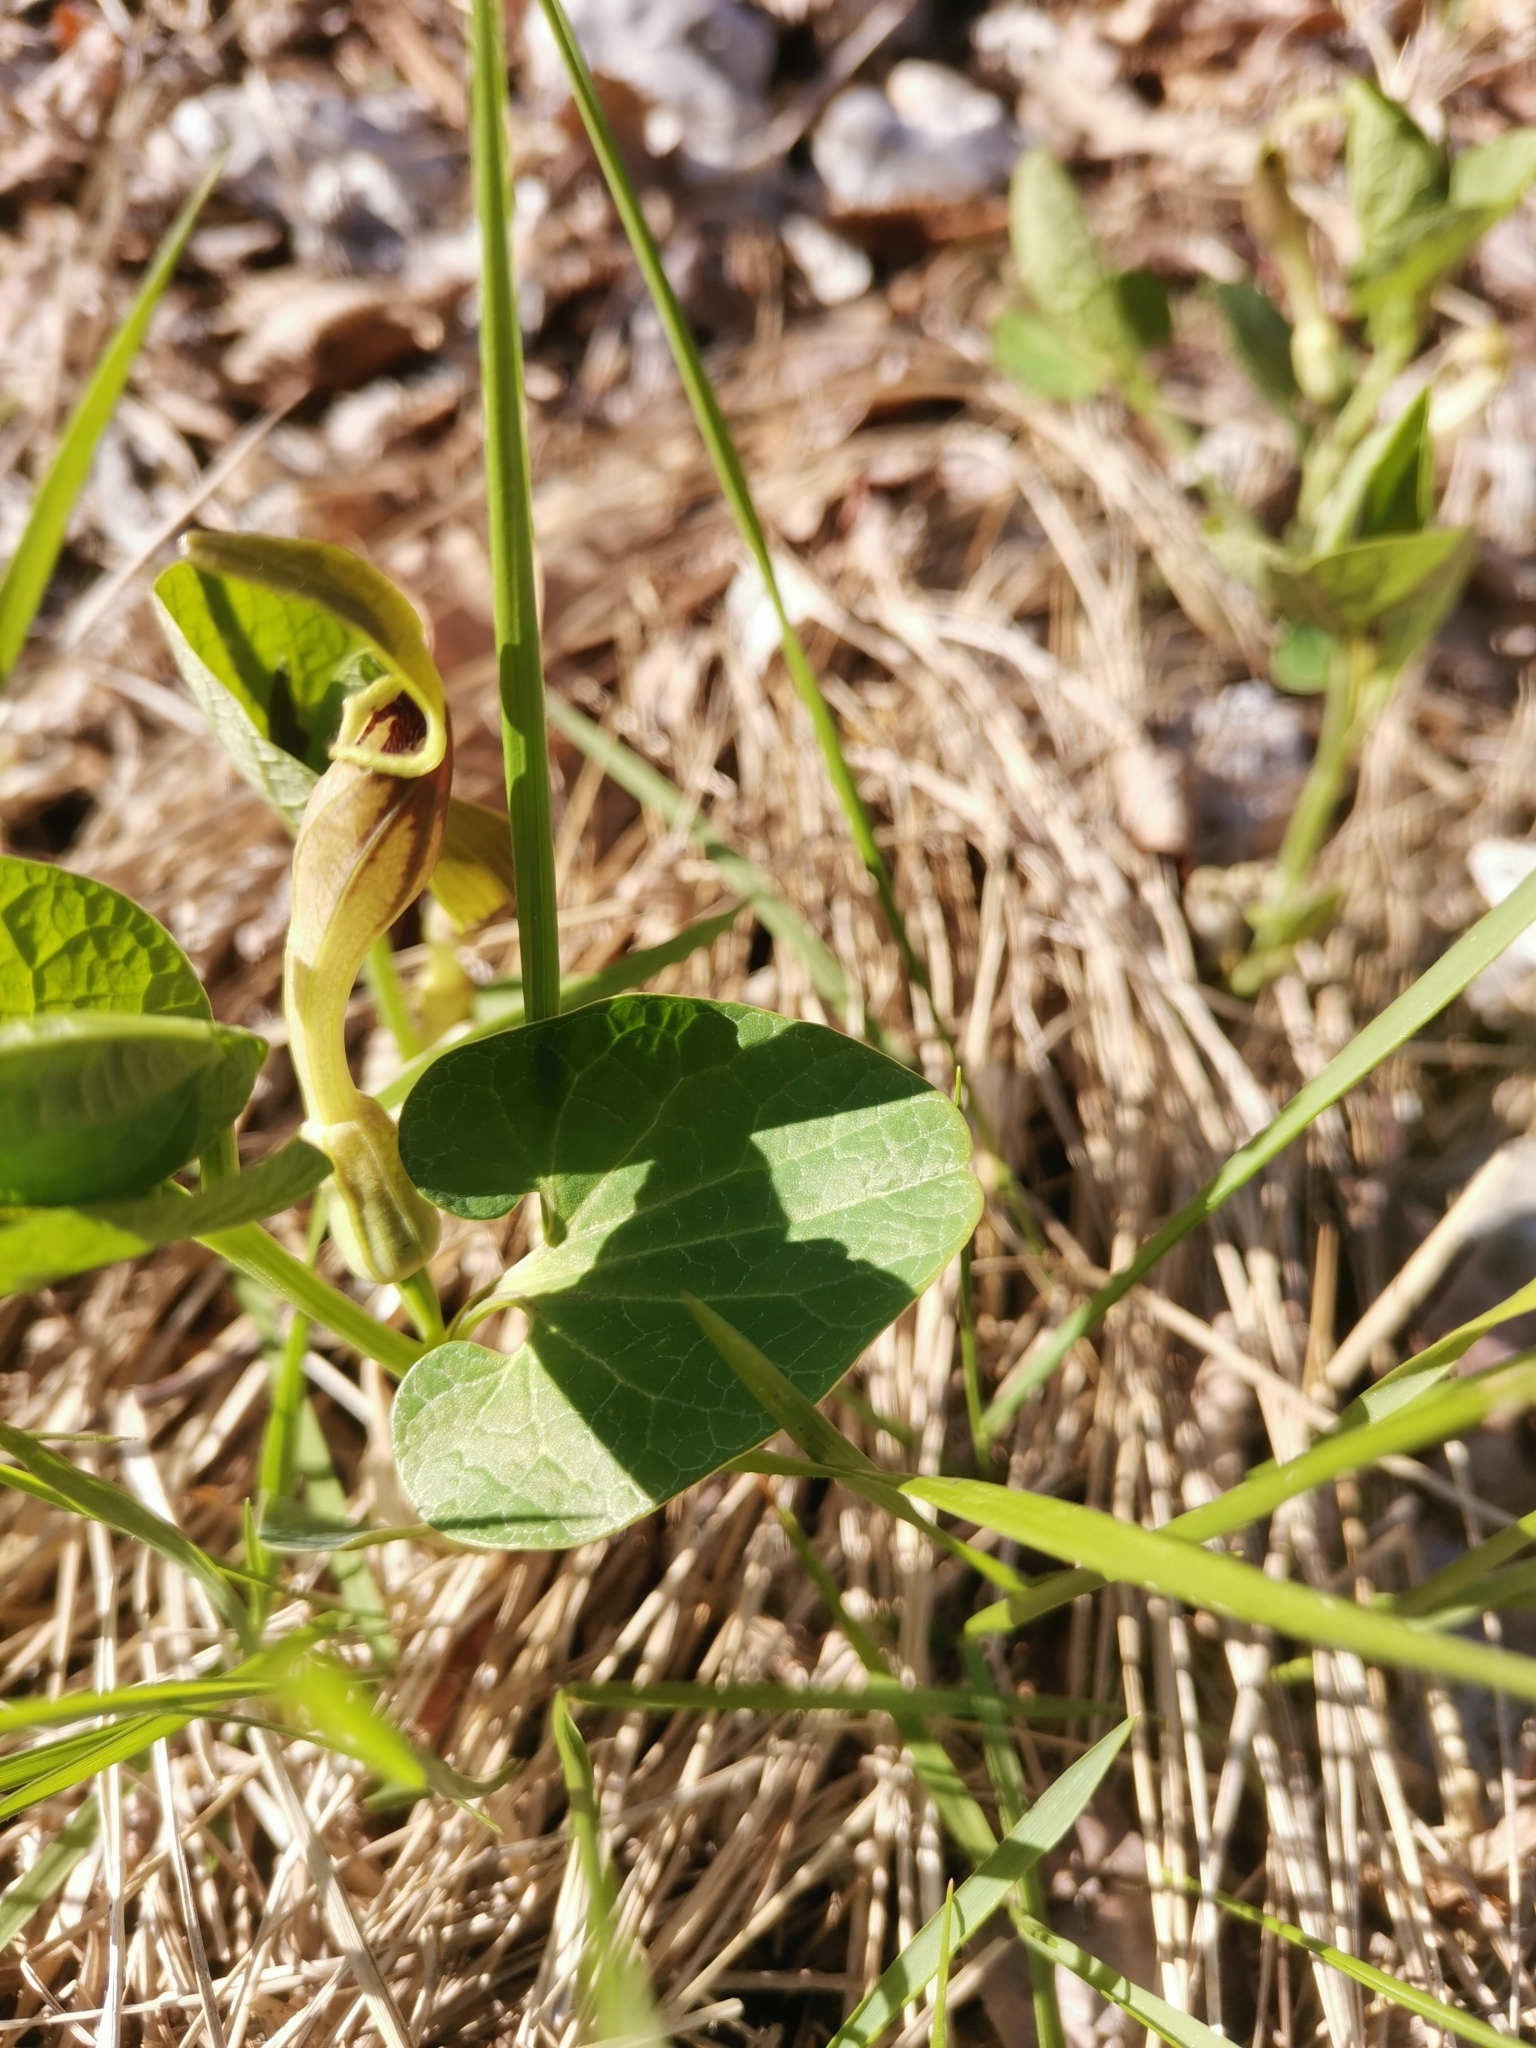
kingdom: Plantae
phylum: Tracheophyta
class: Magnoliopsida
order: Piperales
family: Aristolochiaceae
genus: Aristolochia
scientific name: Aristolochia pallida
